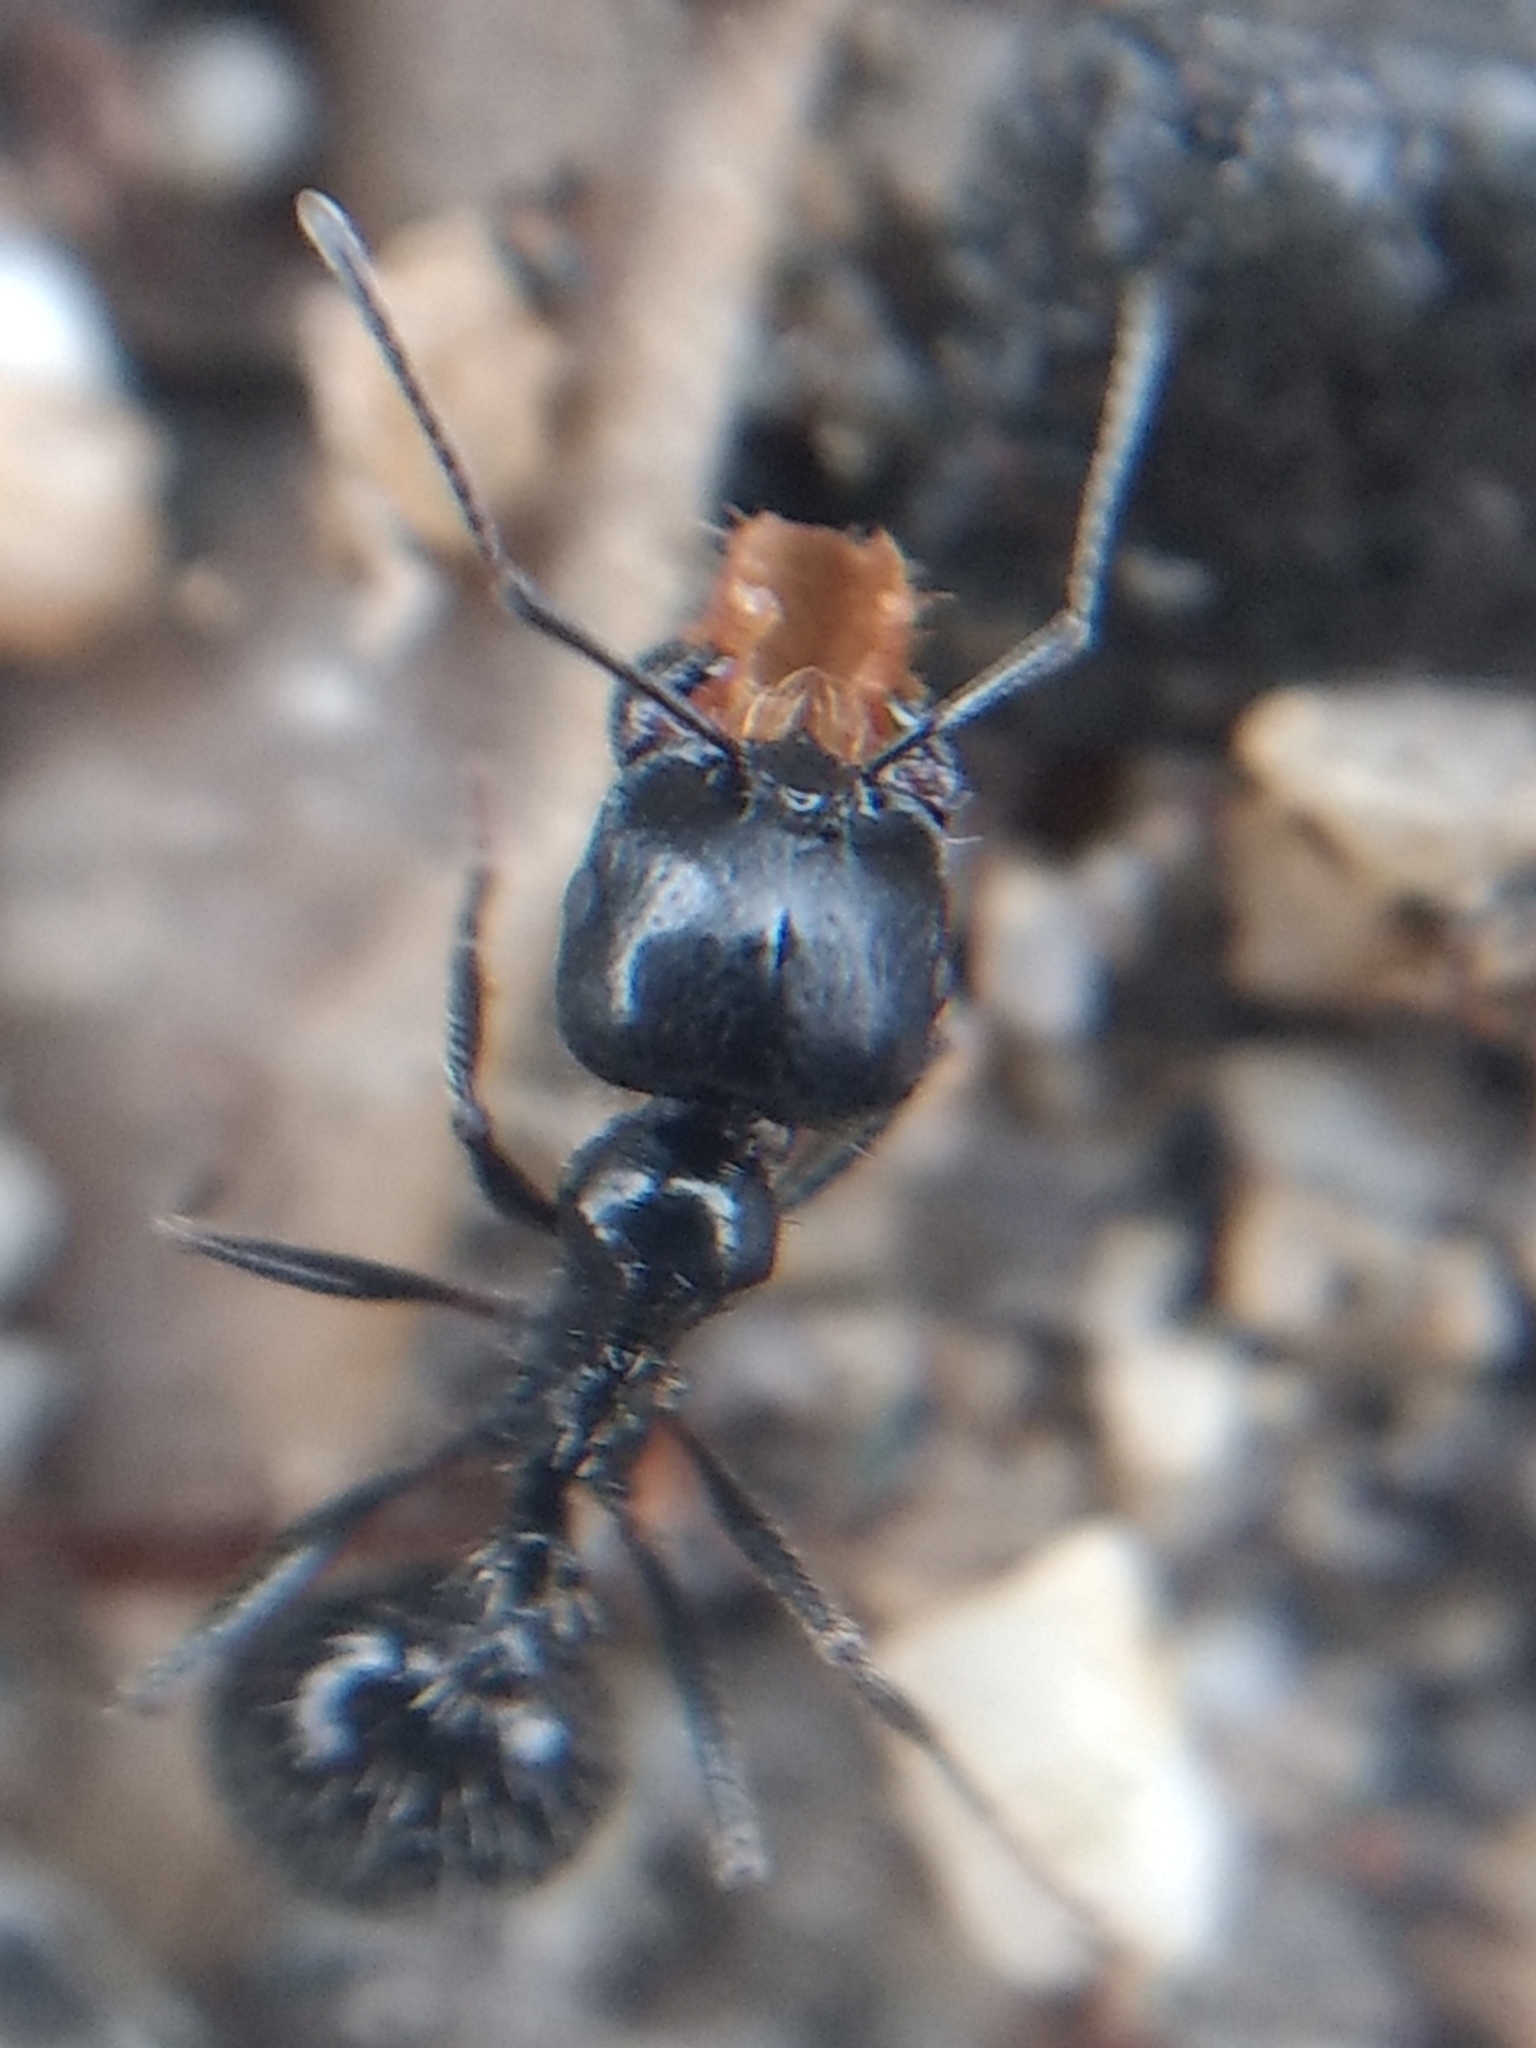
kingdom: Animalia
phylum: Arthropoda
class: Insecta
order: Hymenoptera
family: Formicidae
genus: Messor
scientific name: Messor pergandei
